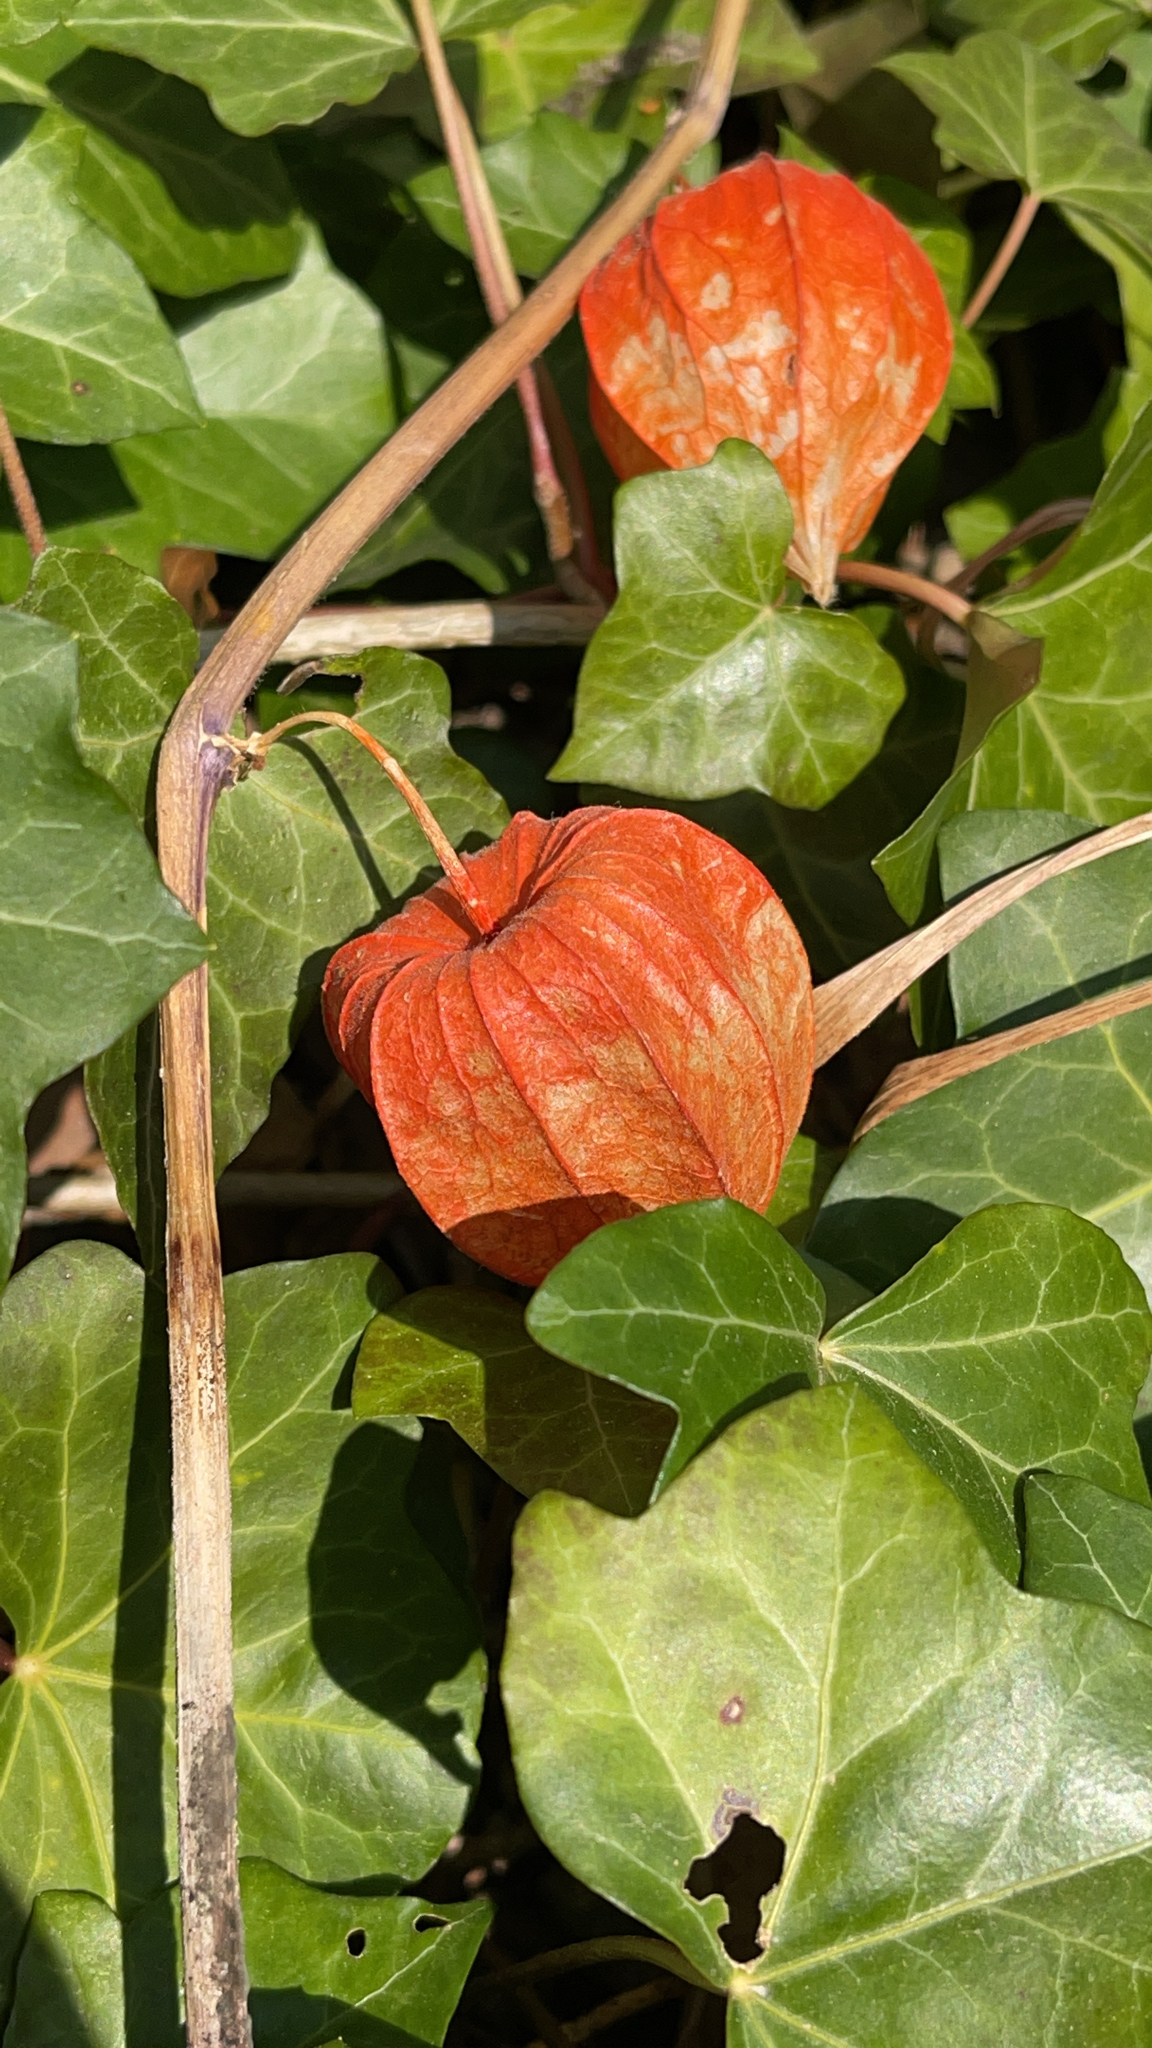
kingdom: Plantae
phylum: Tracheophyta
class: Magnoliopsida
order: Solanales
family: Solanaceae
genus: Alkekengi
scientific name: Alkekengi officinarum
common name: Japanese-lantern
